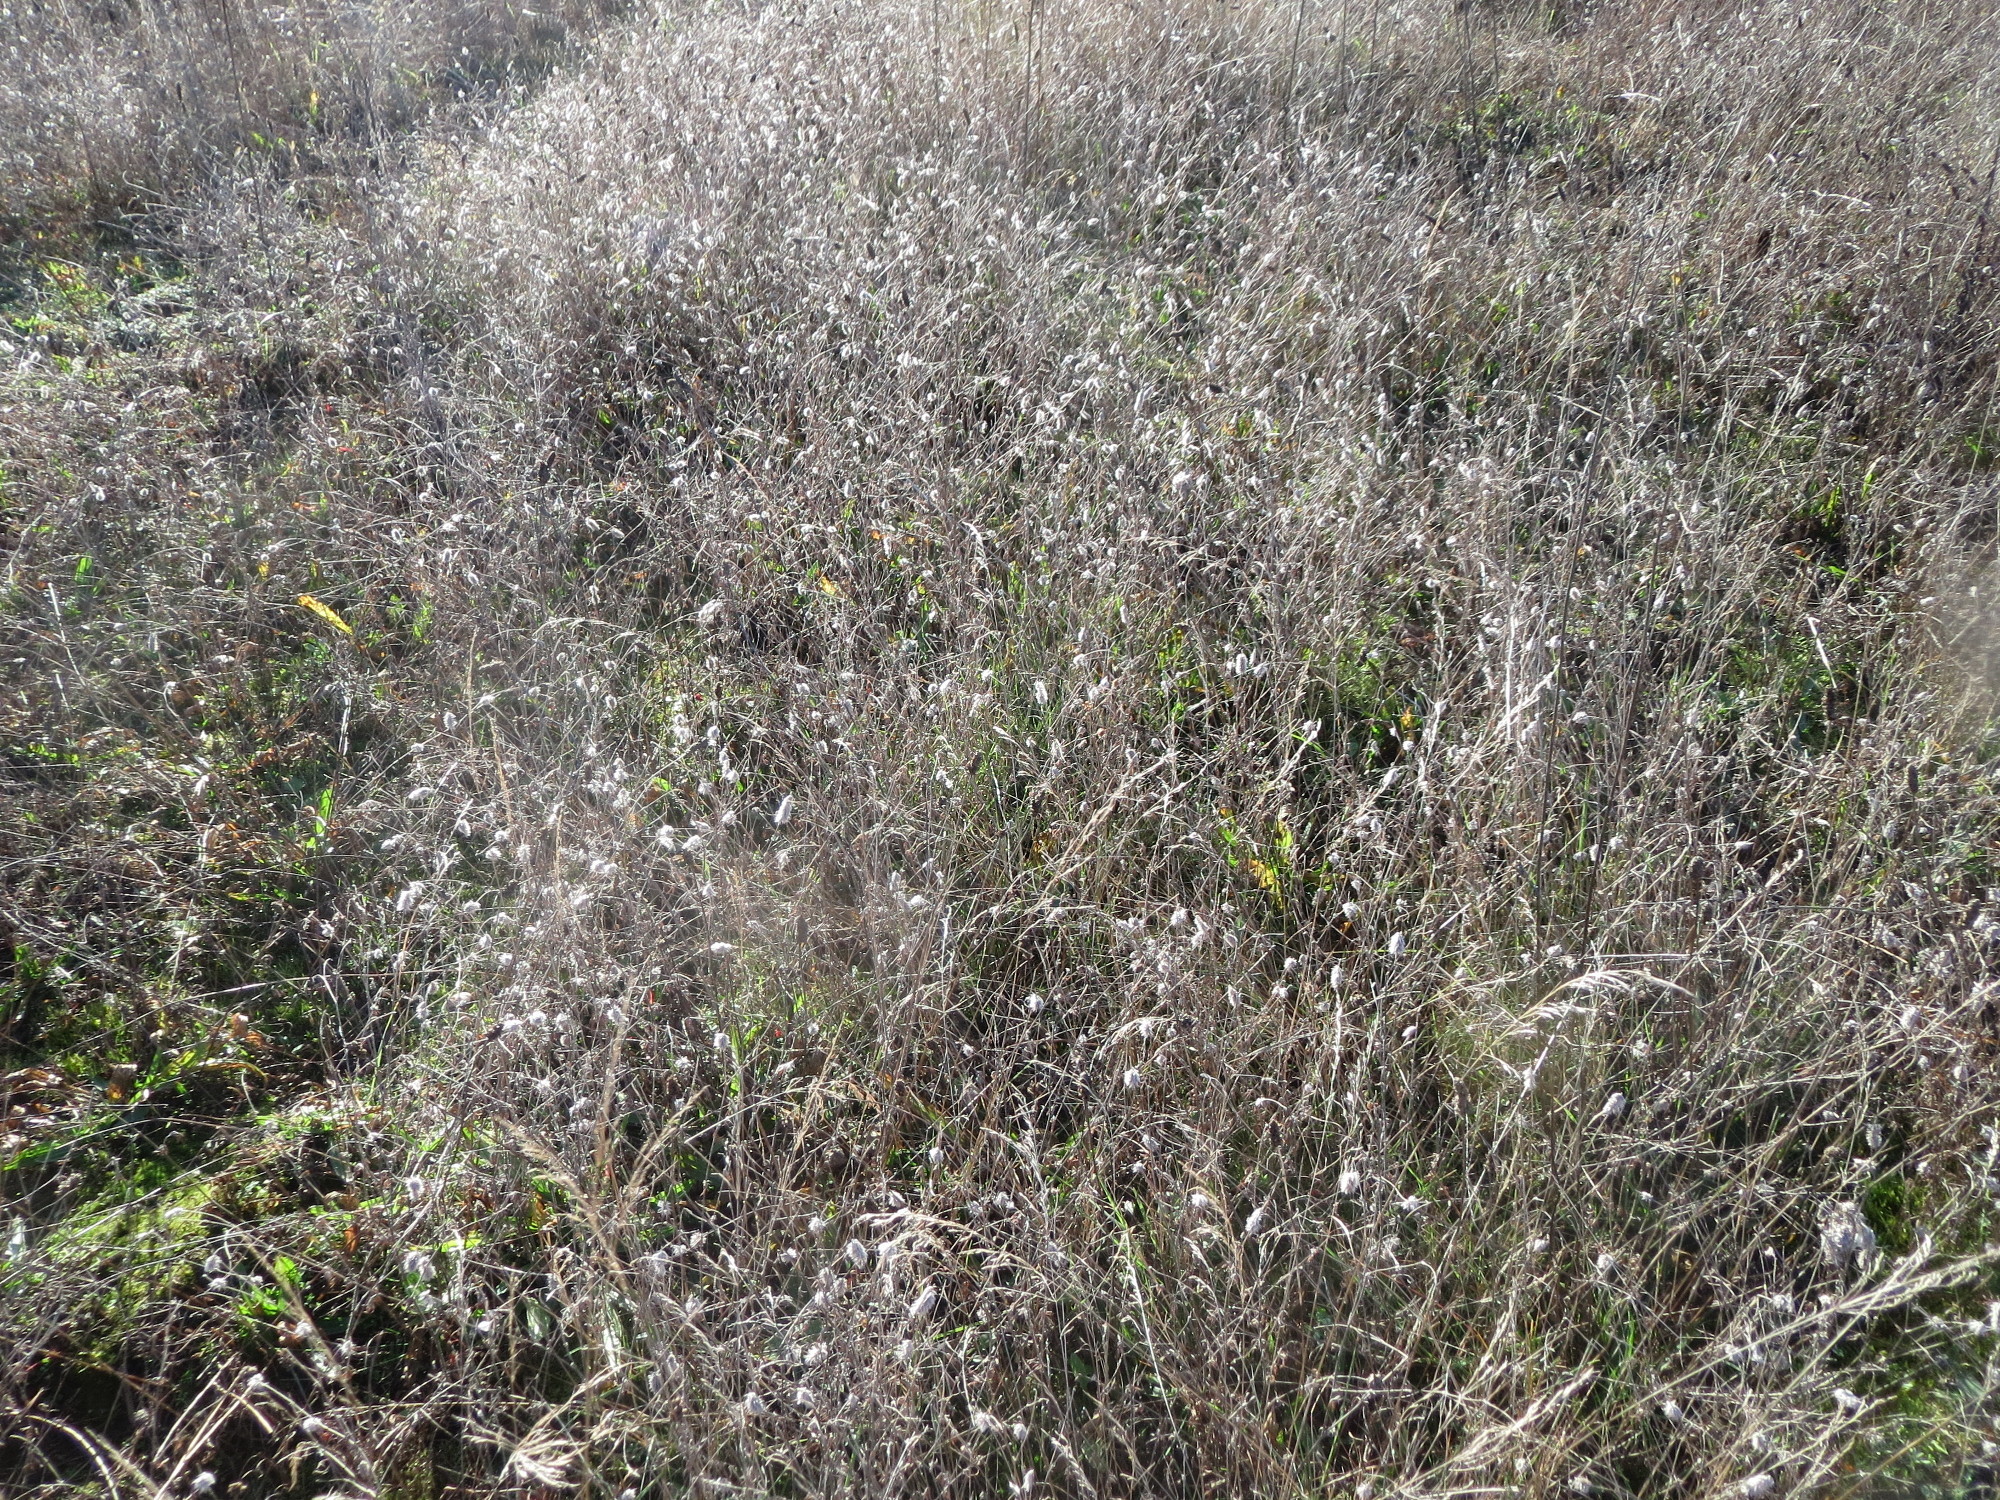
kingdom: Plantae
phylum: Tracheophyta
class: Magnoliopsida
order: Fabales
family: Fabaceae
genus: Trifolium
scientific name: Trifolium arvense
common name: Hare's-foot clover
